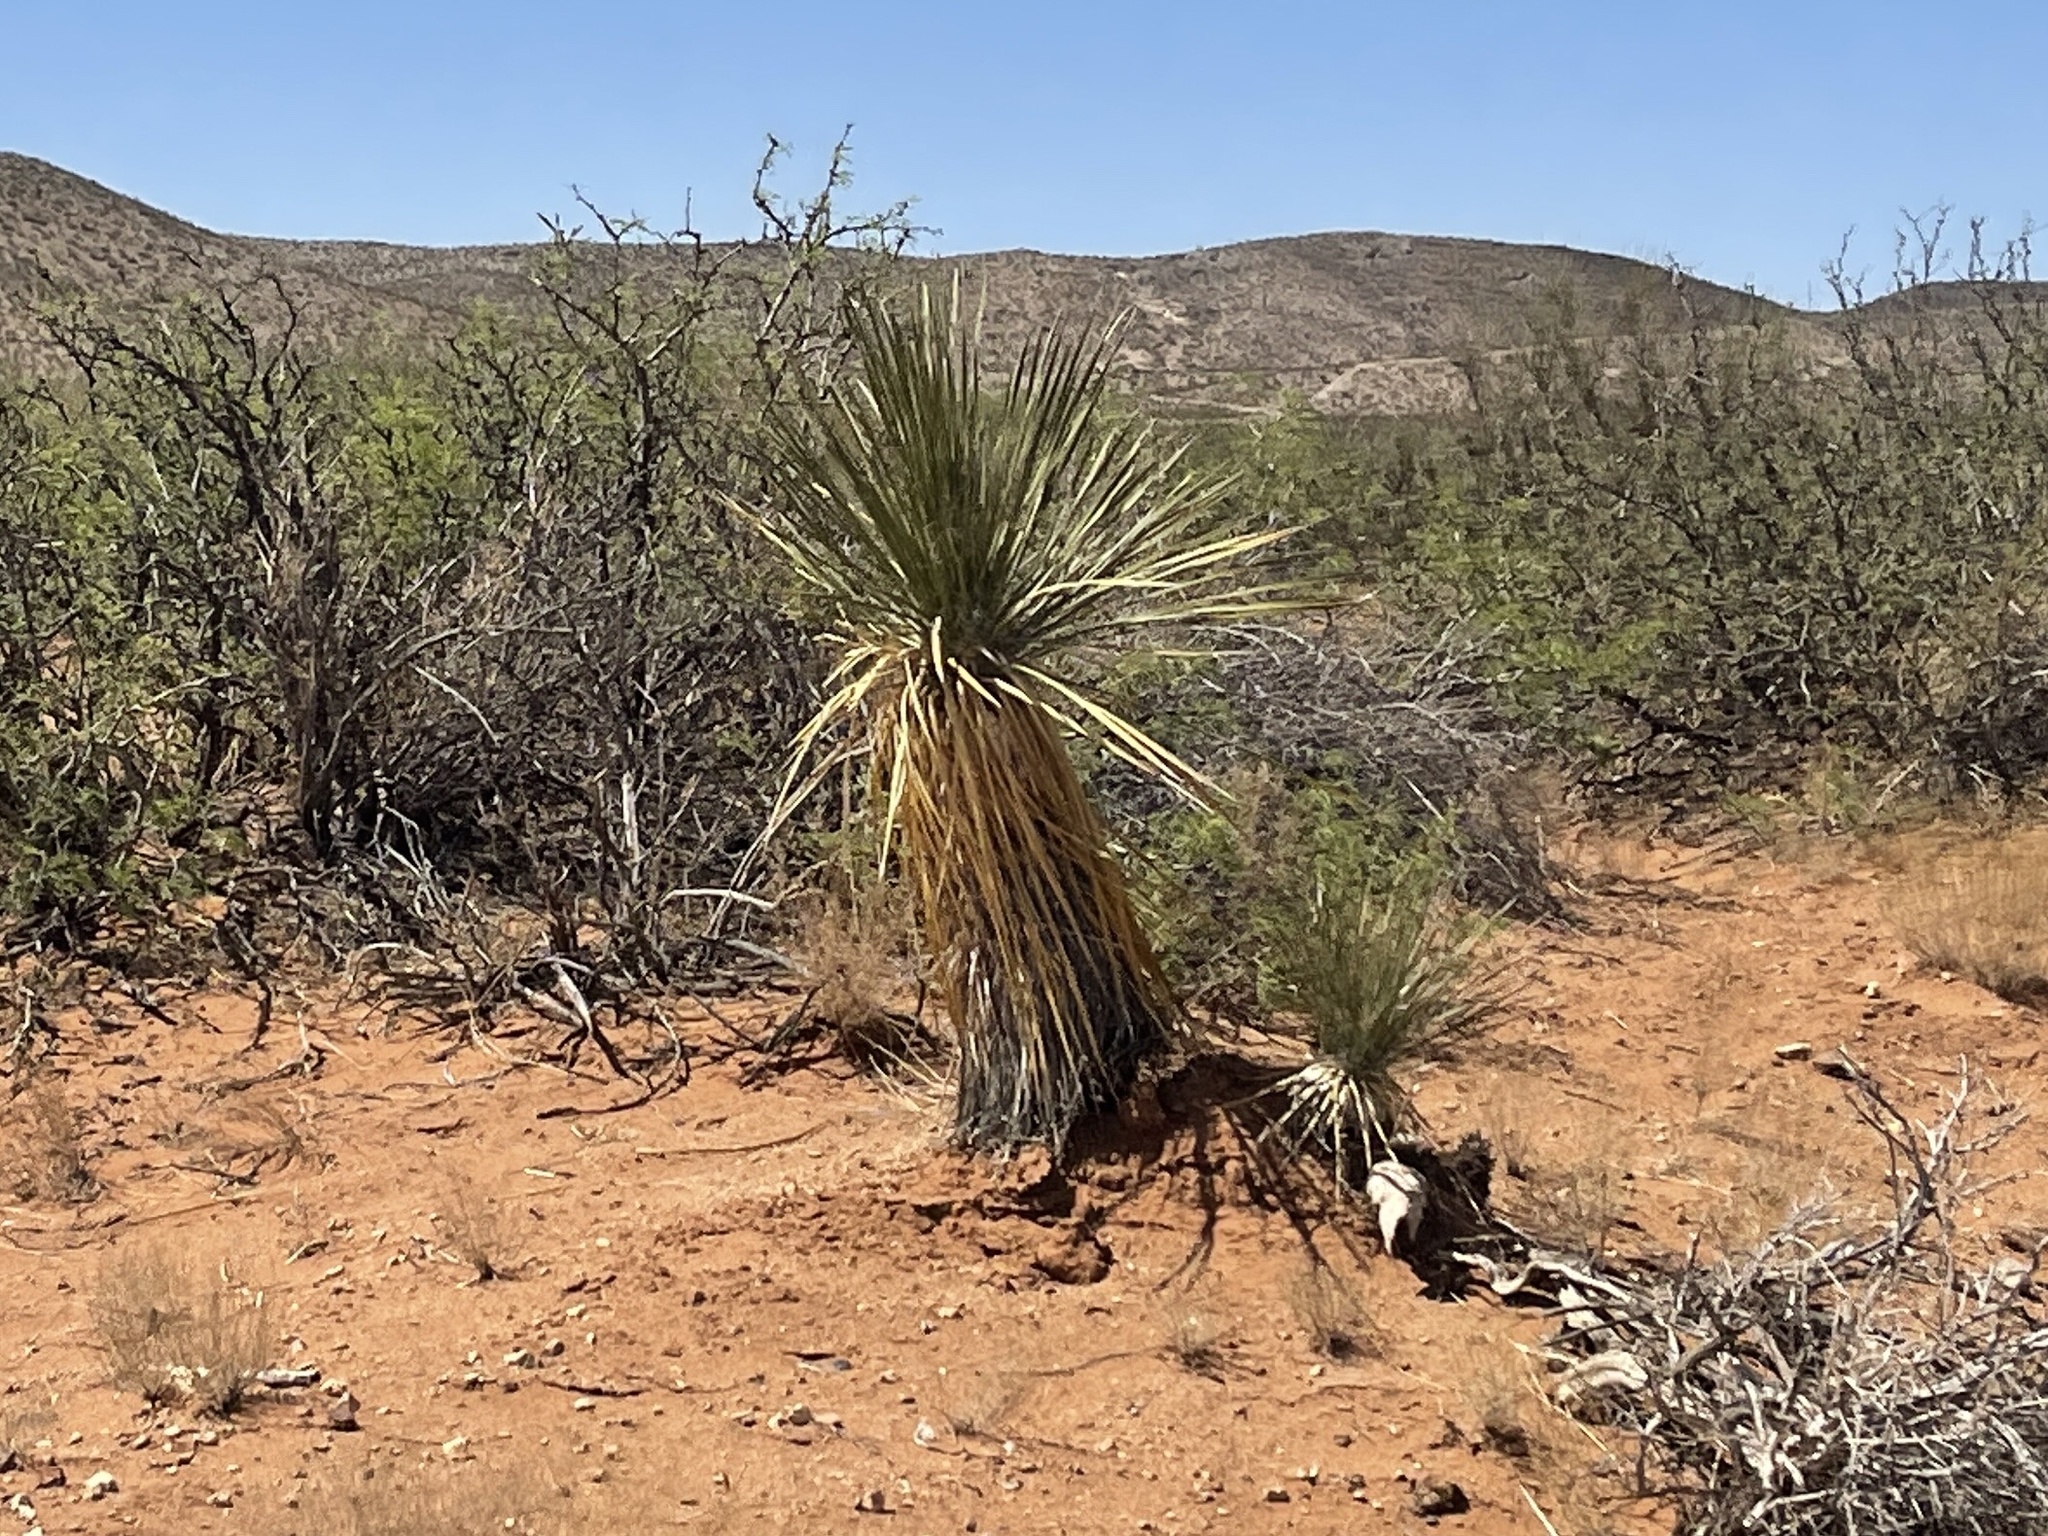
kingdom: Plantae
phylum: Tracheophyta
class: Liliopsida
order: Asparagales
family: Asparagaceae
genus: Yucca
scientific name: Yucca elata
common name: Palmella
